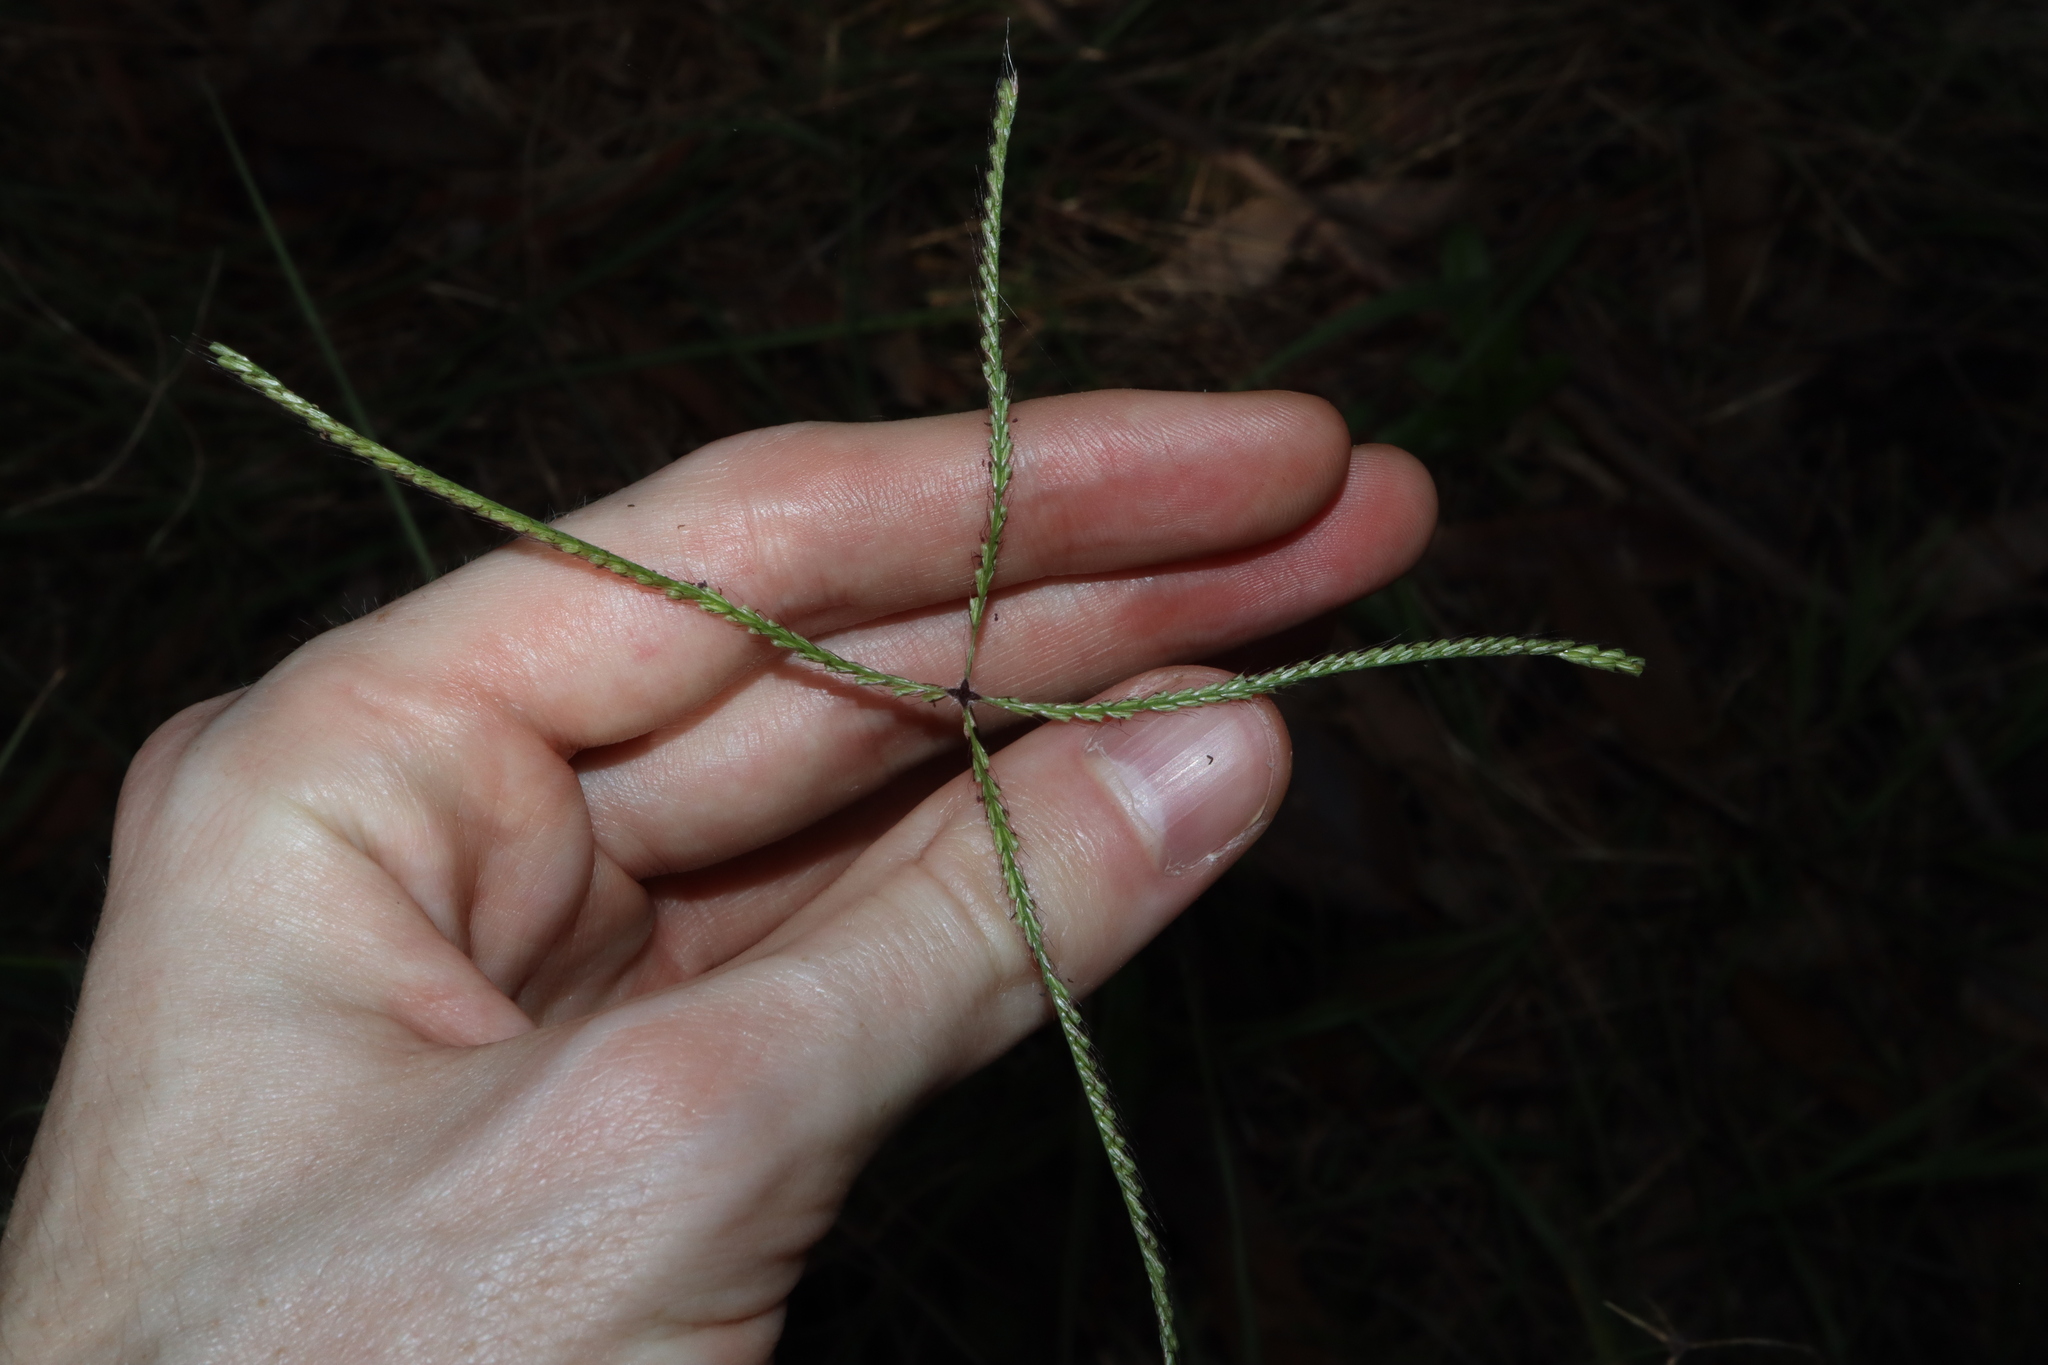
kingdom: Plantae
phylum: Tracheophyta
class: Liliopsida
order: Poales
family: Poaceae
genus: Chloris
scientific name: Chloris ventricosa
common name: Australian windmill grass
